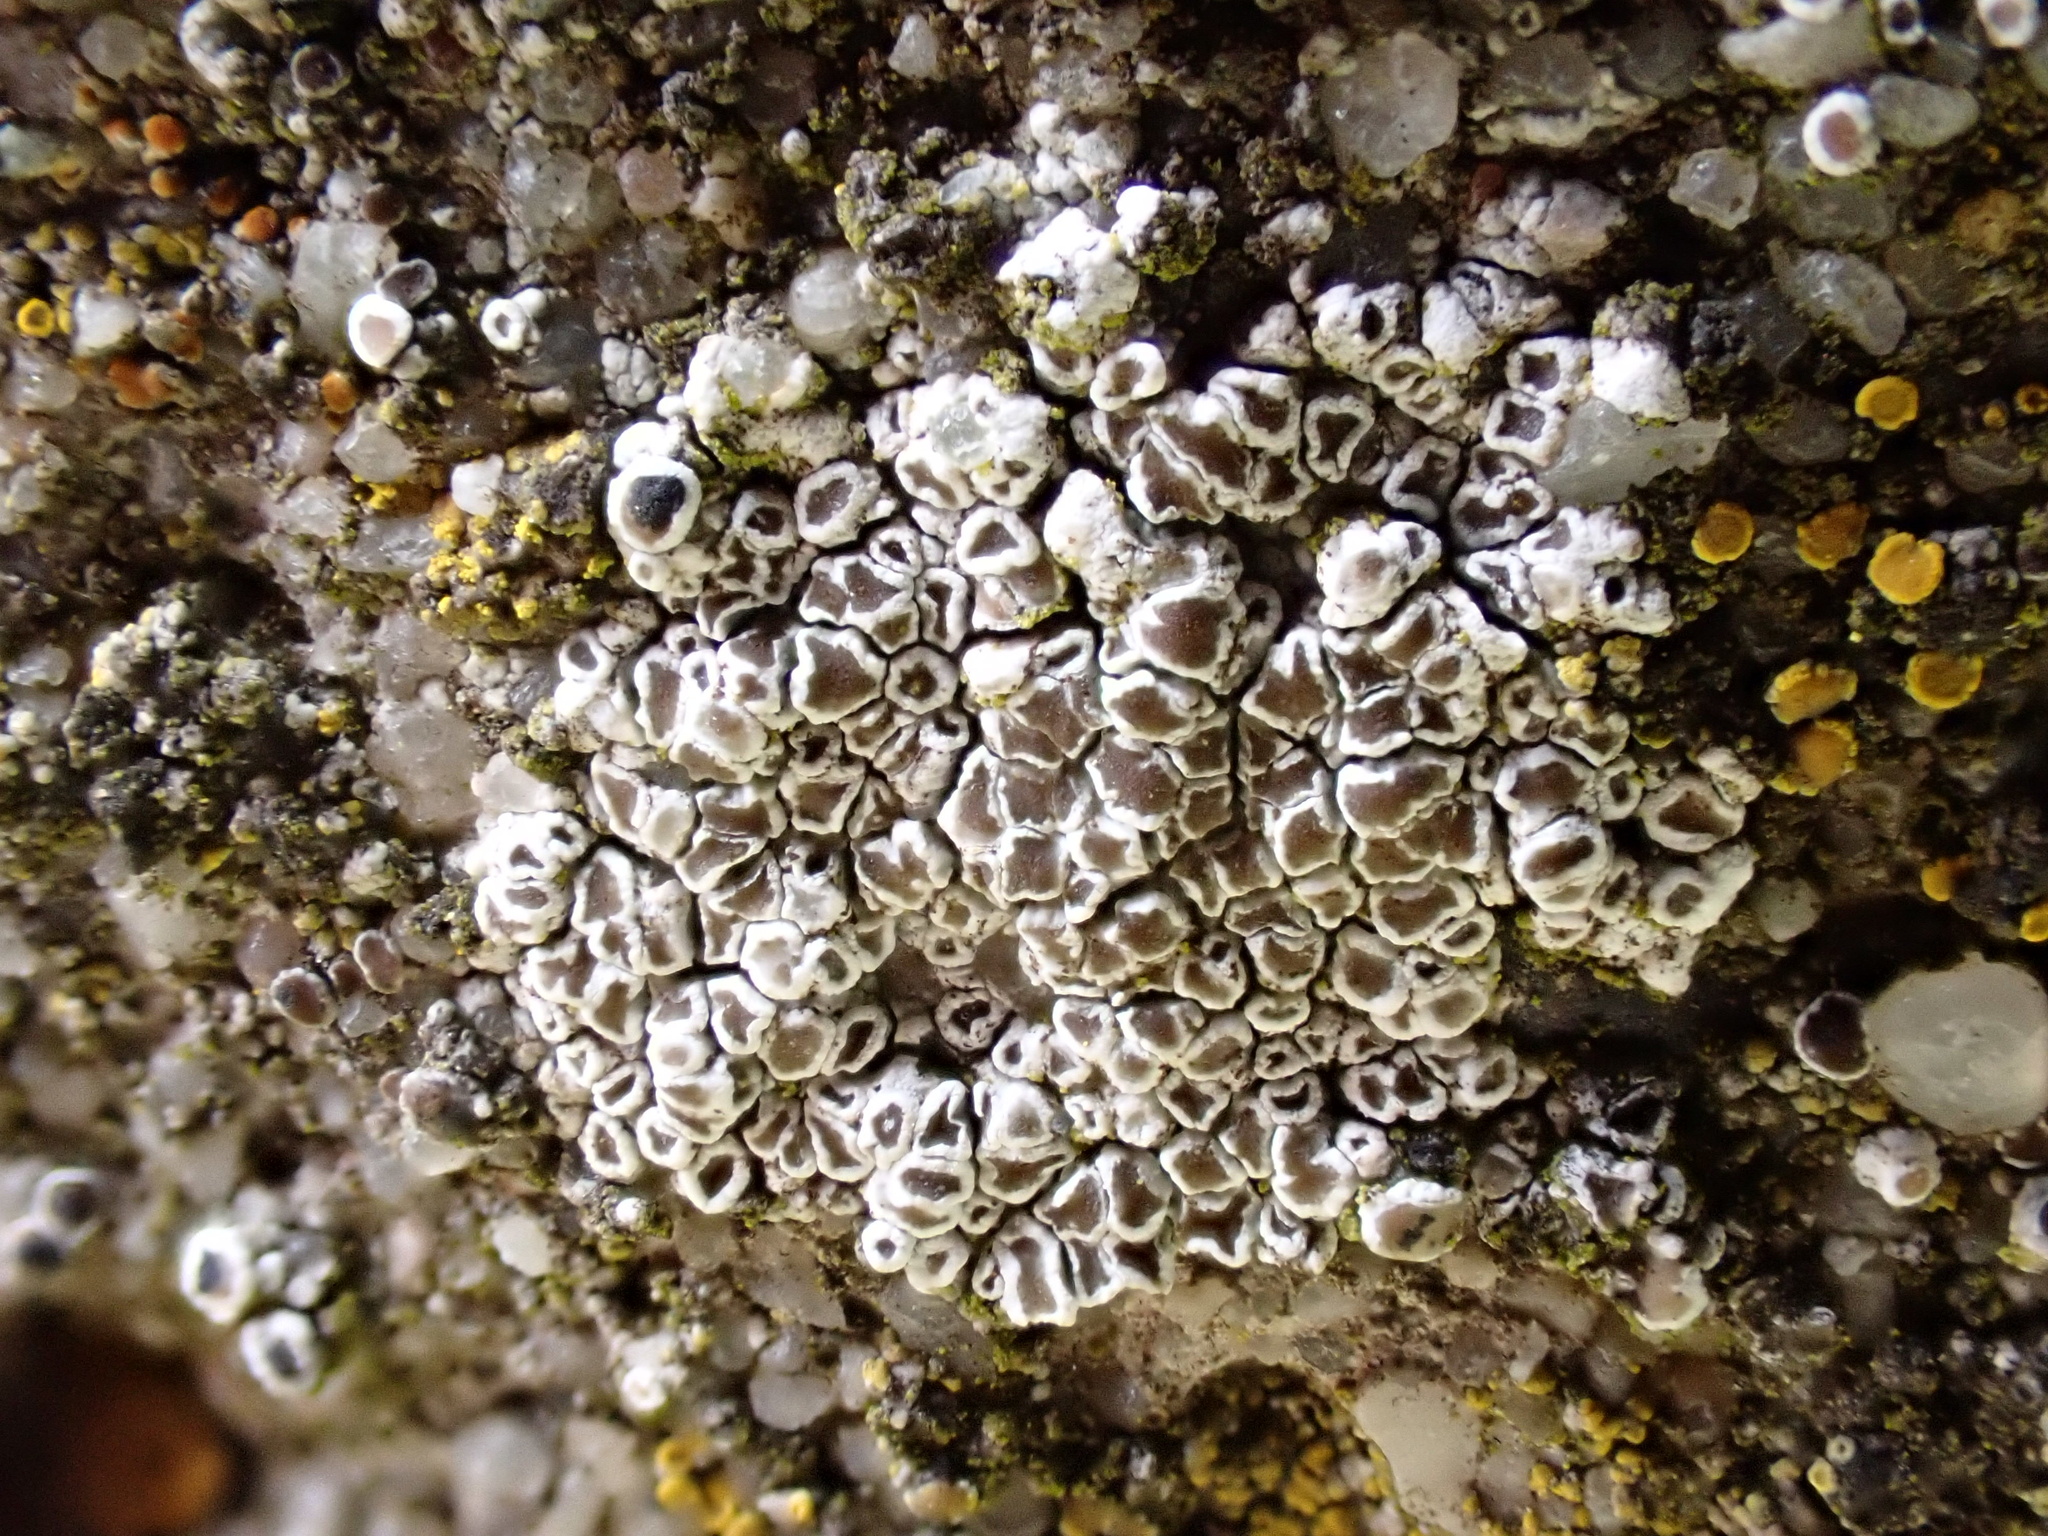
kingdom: Fungi
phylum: Ascomycota
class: Lecanoromycetes
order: Lecanorales
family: Lecanoraceae
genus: Polyozosia
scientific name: Polyozosia albescens
